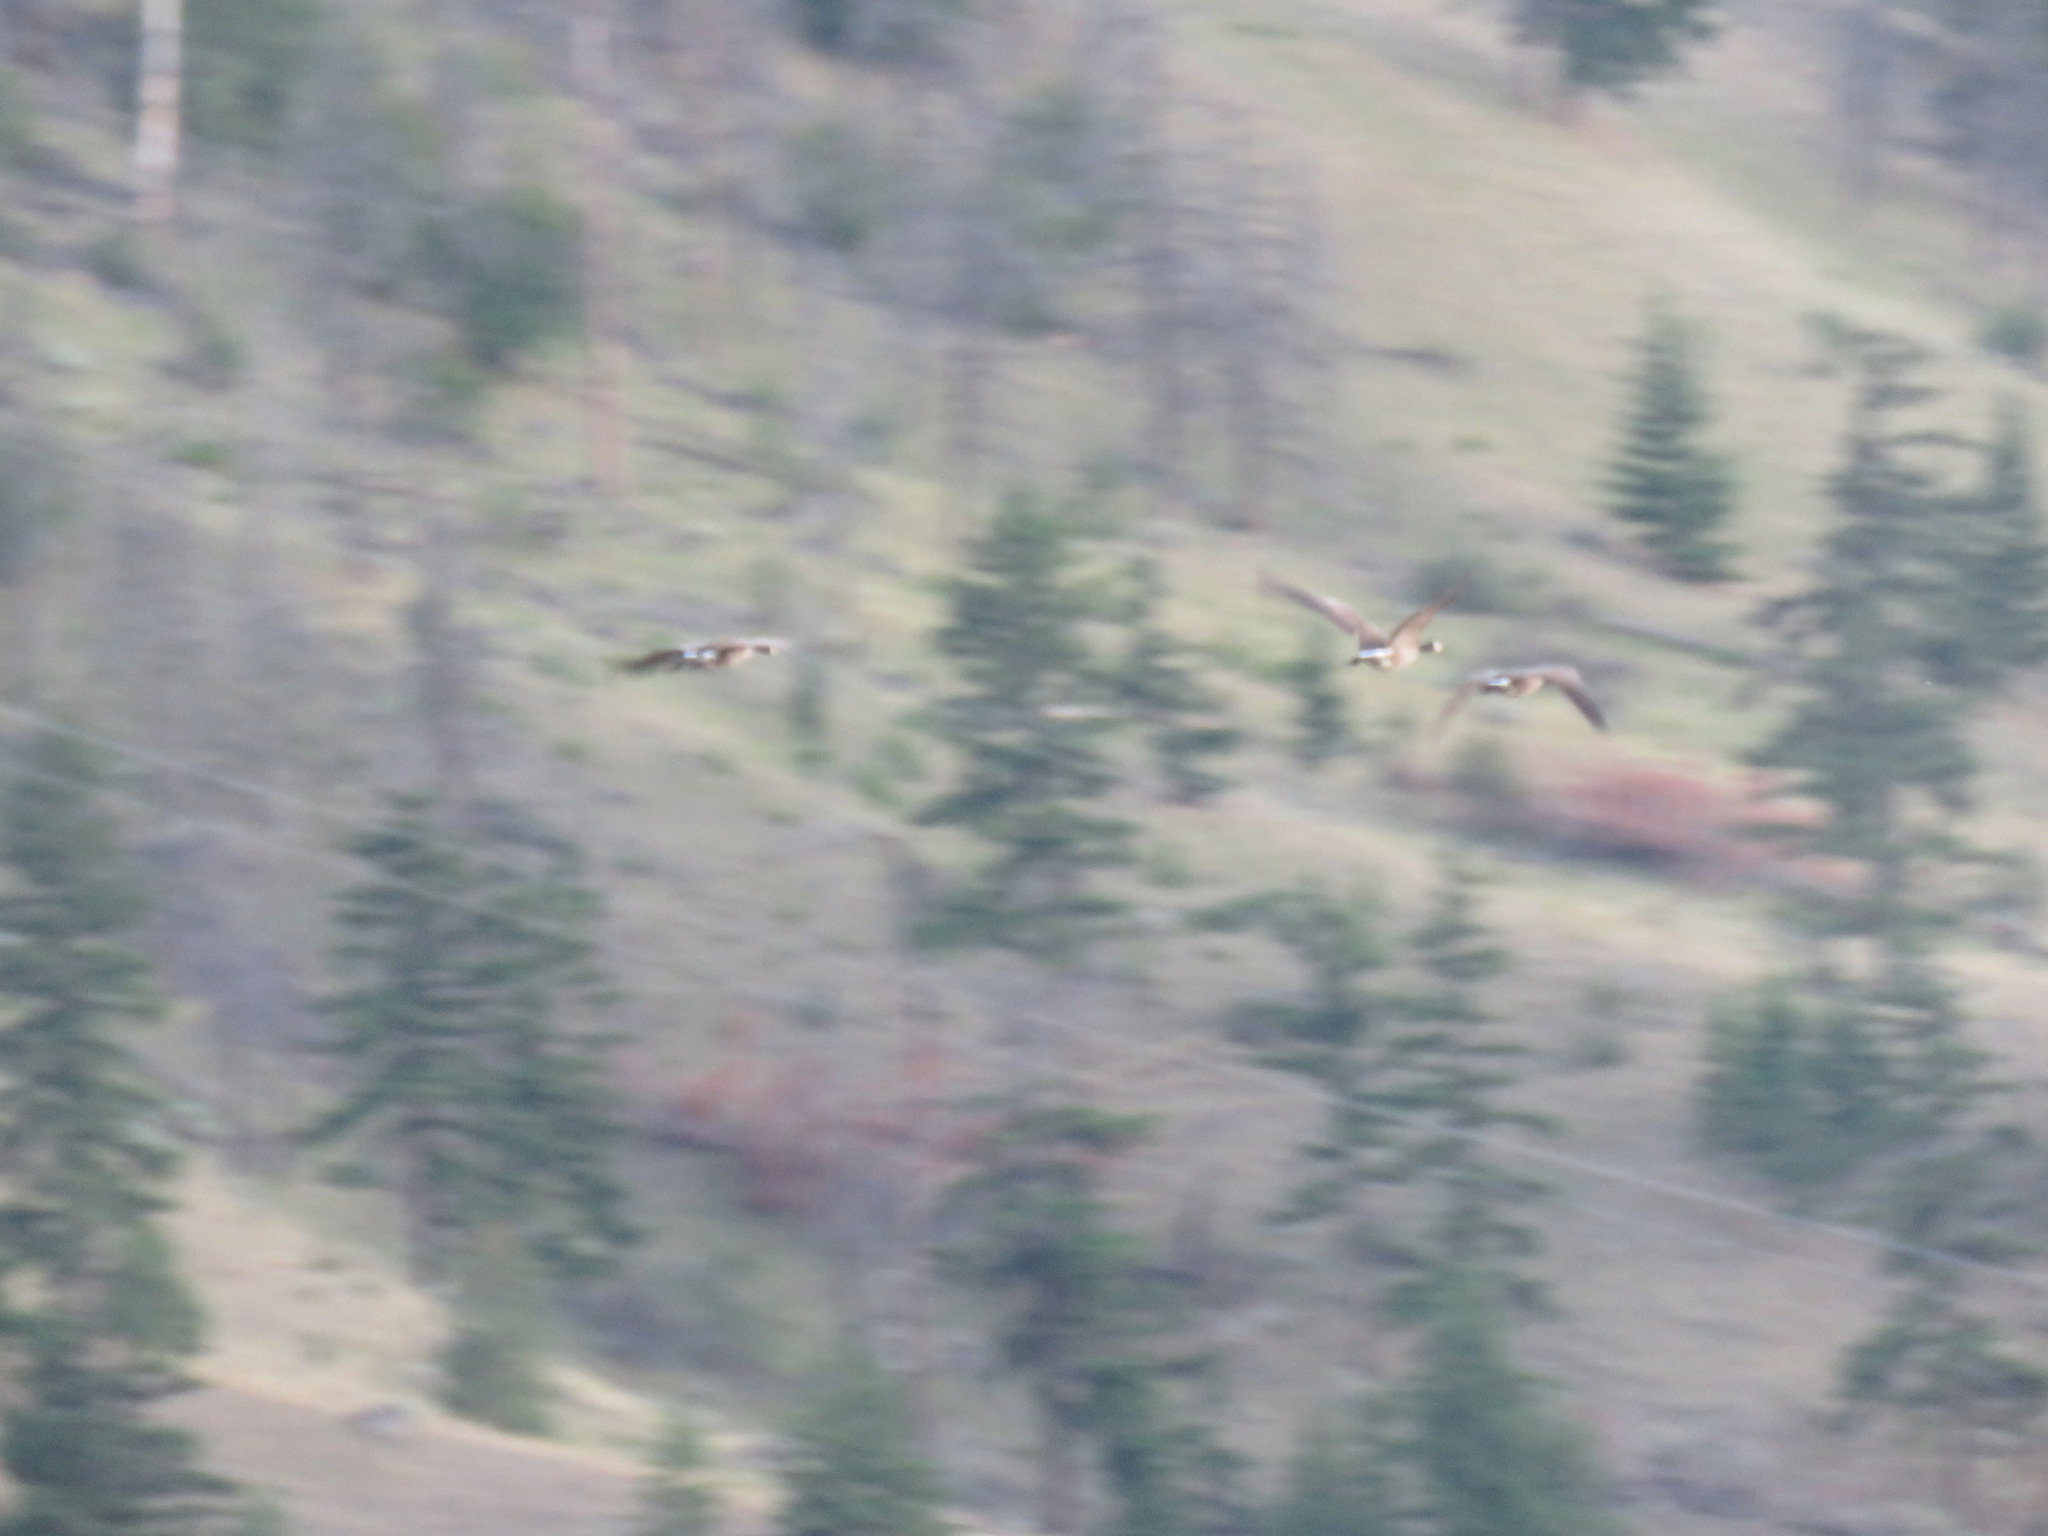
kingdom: Animalia
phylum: Chordata
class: Aves
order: Anseriformes
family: Anatidae
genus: Branta
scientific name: Branta canadensis
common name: Canada goose
